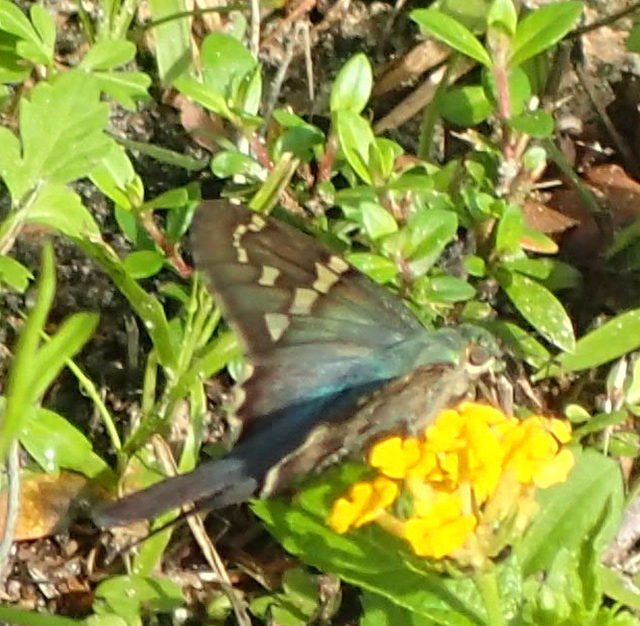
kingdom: Animalia
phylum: Arthropoda
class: Insecta
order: Lepidoptera
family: Hesperiidae
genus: Urbanus
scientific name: Urbanus proteus
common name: Long-tailed skipper
